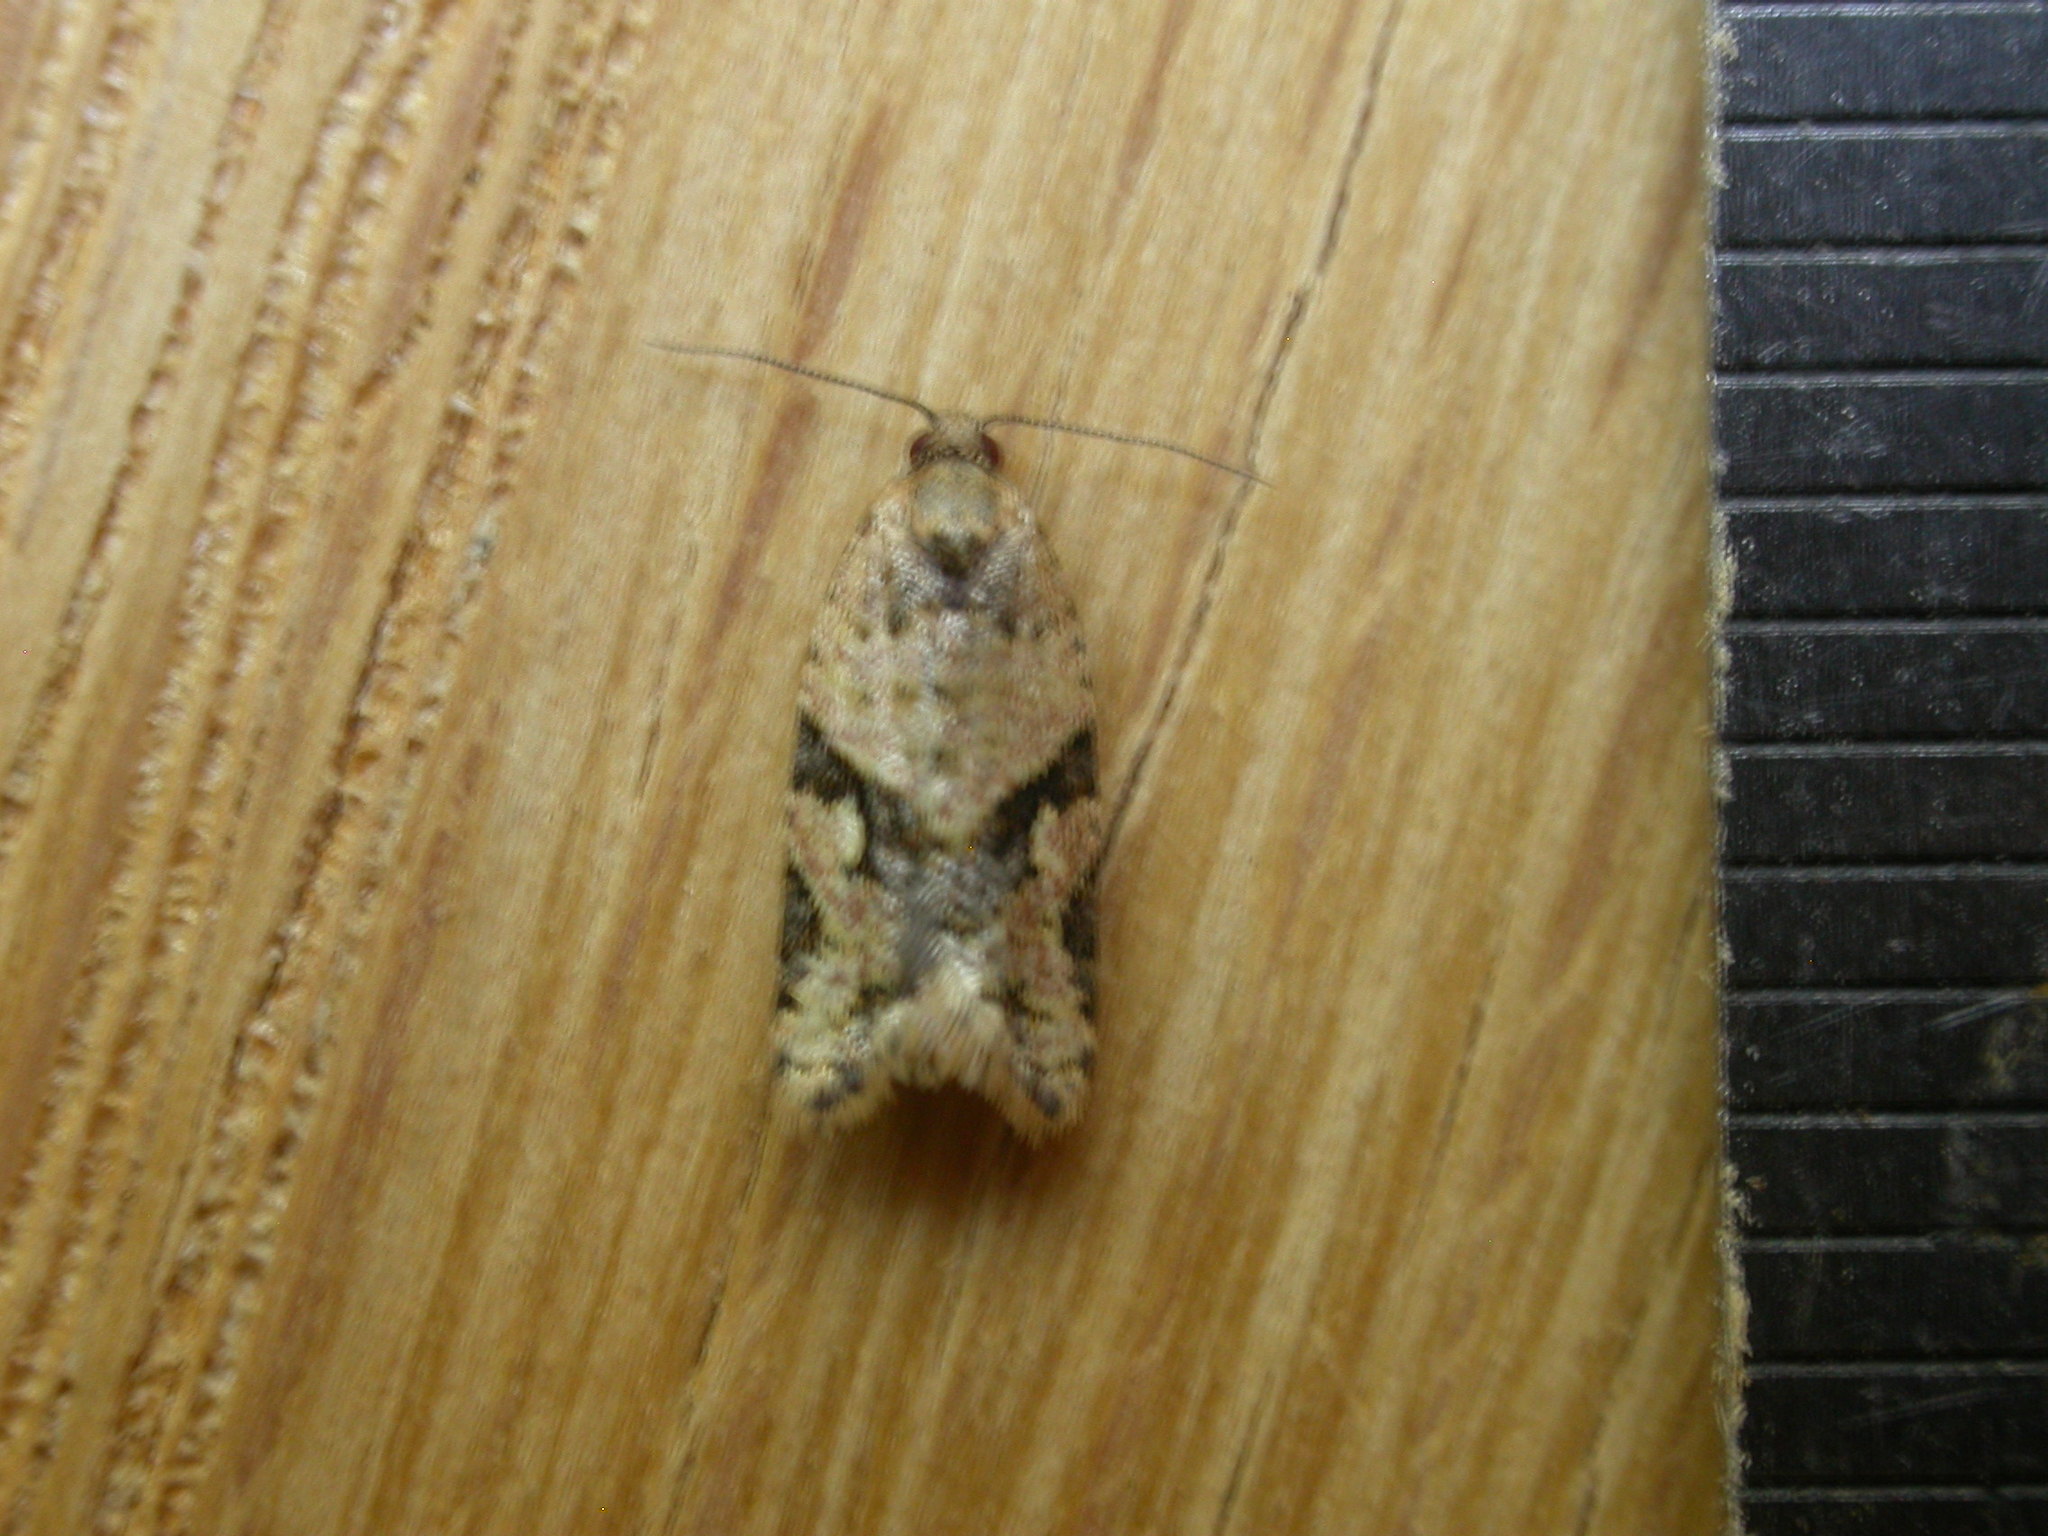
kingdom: Animalia
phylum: Arthropoda
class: Insecta
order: Lepidoptera
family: Tortricidae
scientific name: Tortricidae
